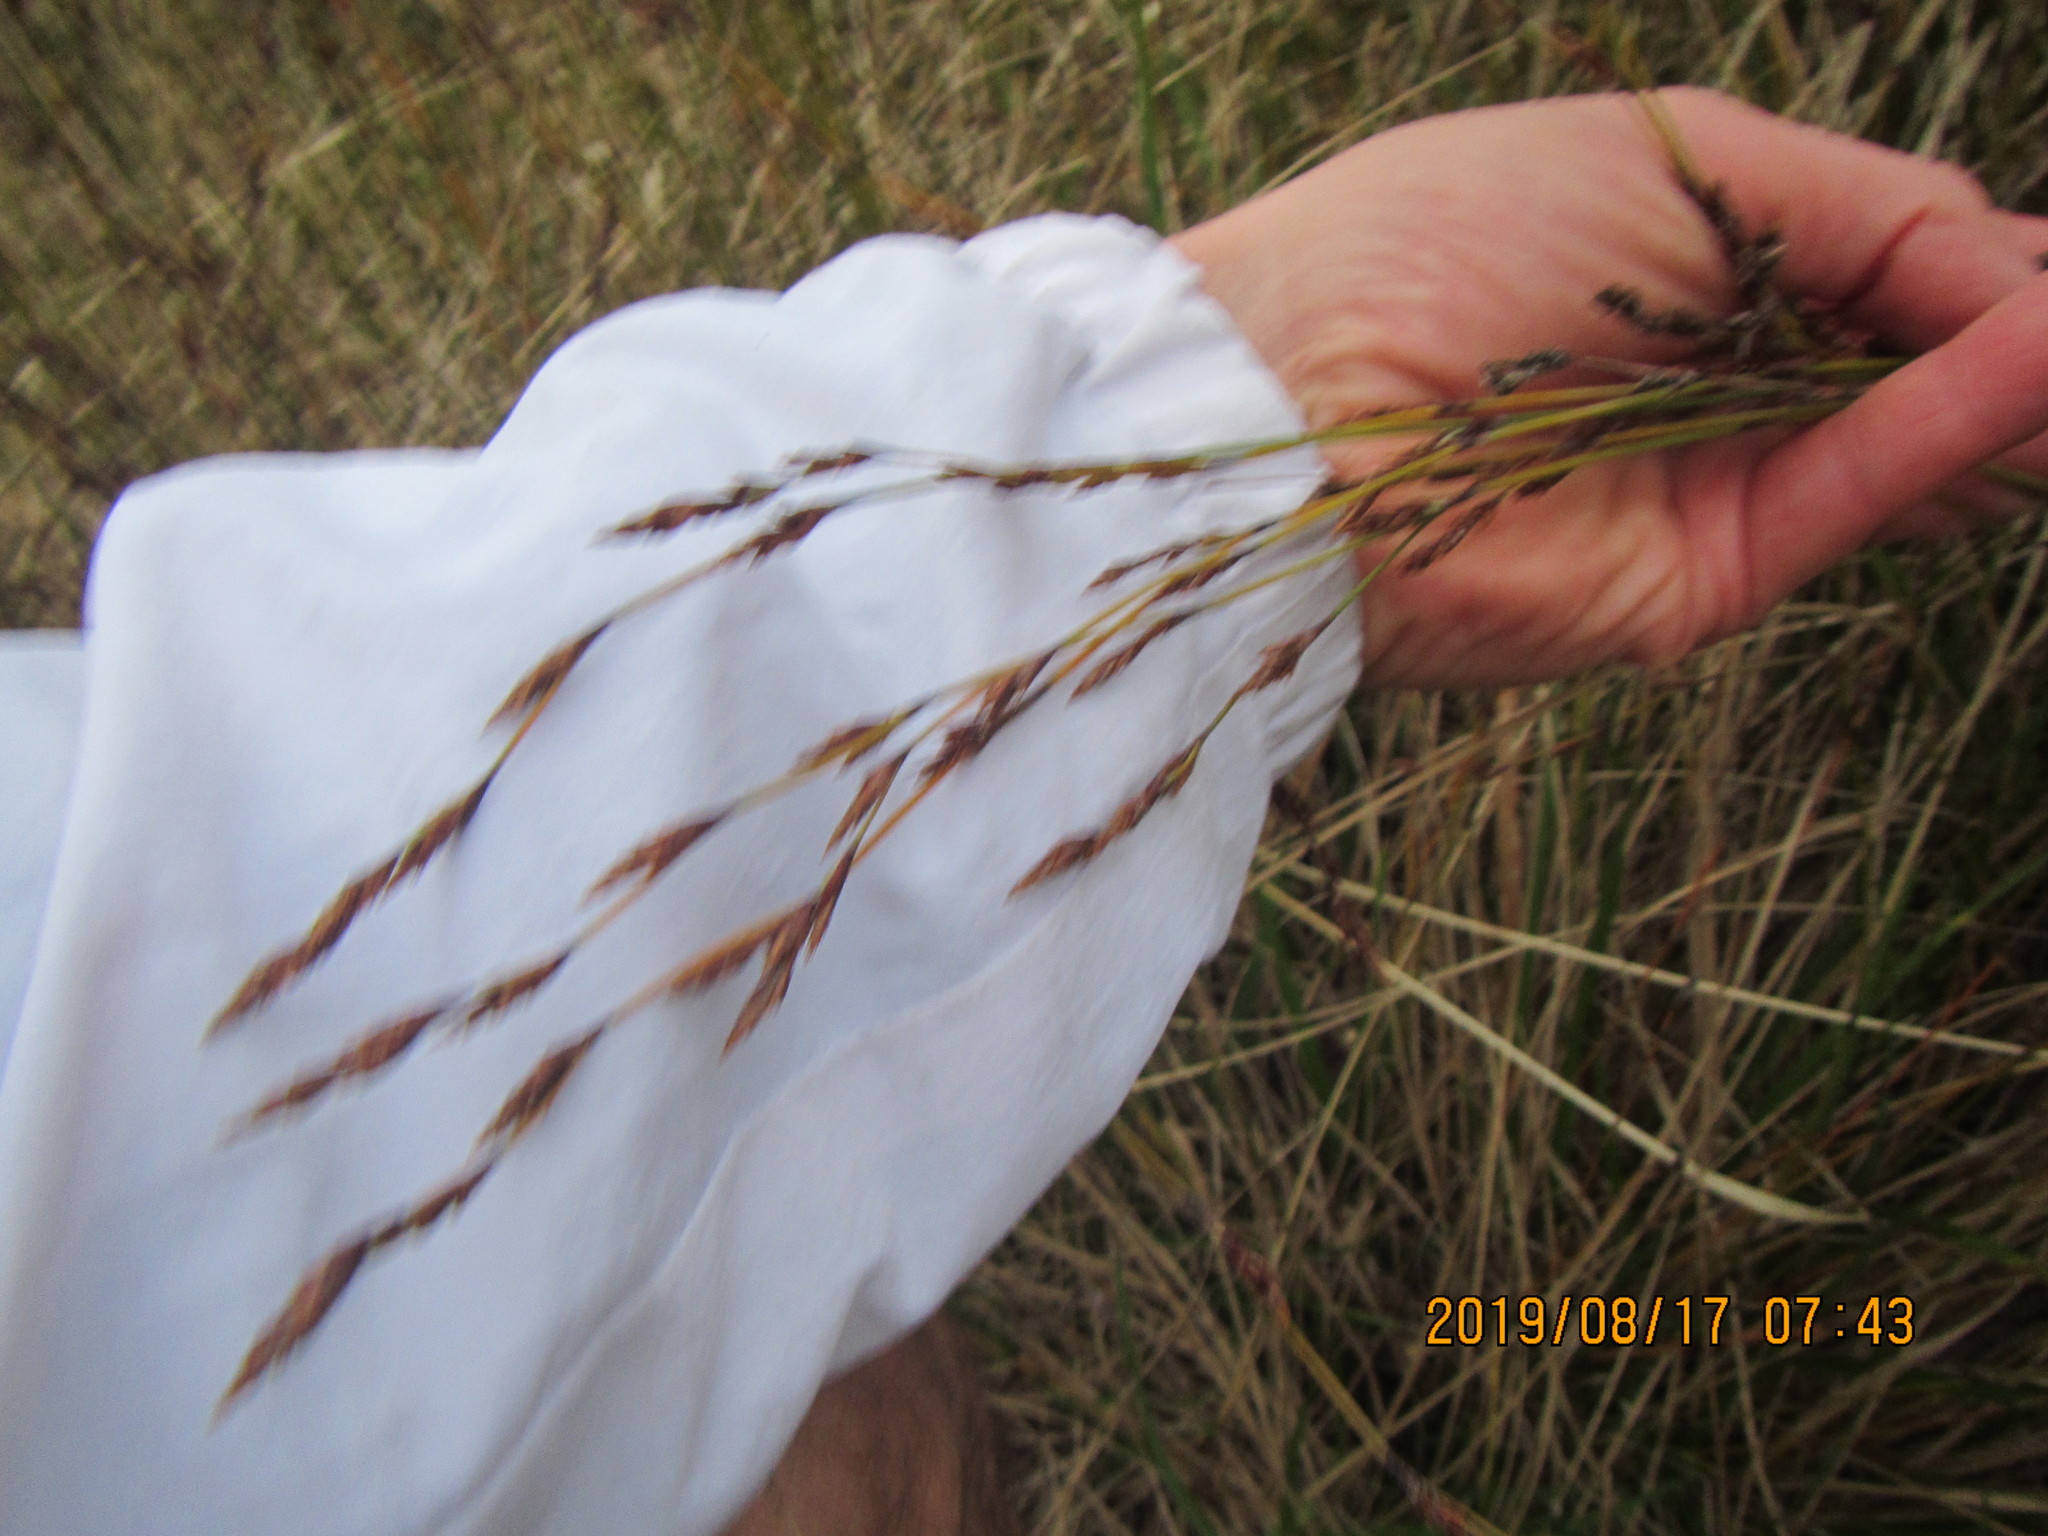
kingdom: Plantae
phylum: Tracheophyta
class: Liliopsida
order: Poales
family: Restionaceae
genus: Apodasmia
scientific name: Apodasmia similis
